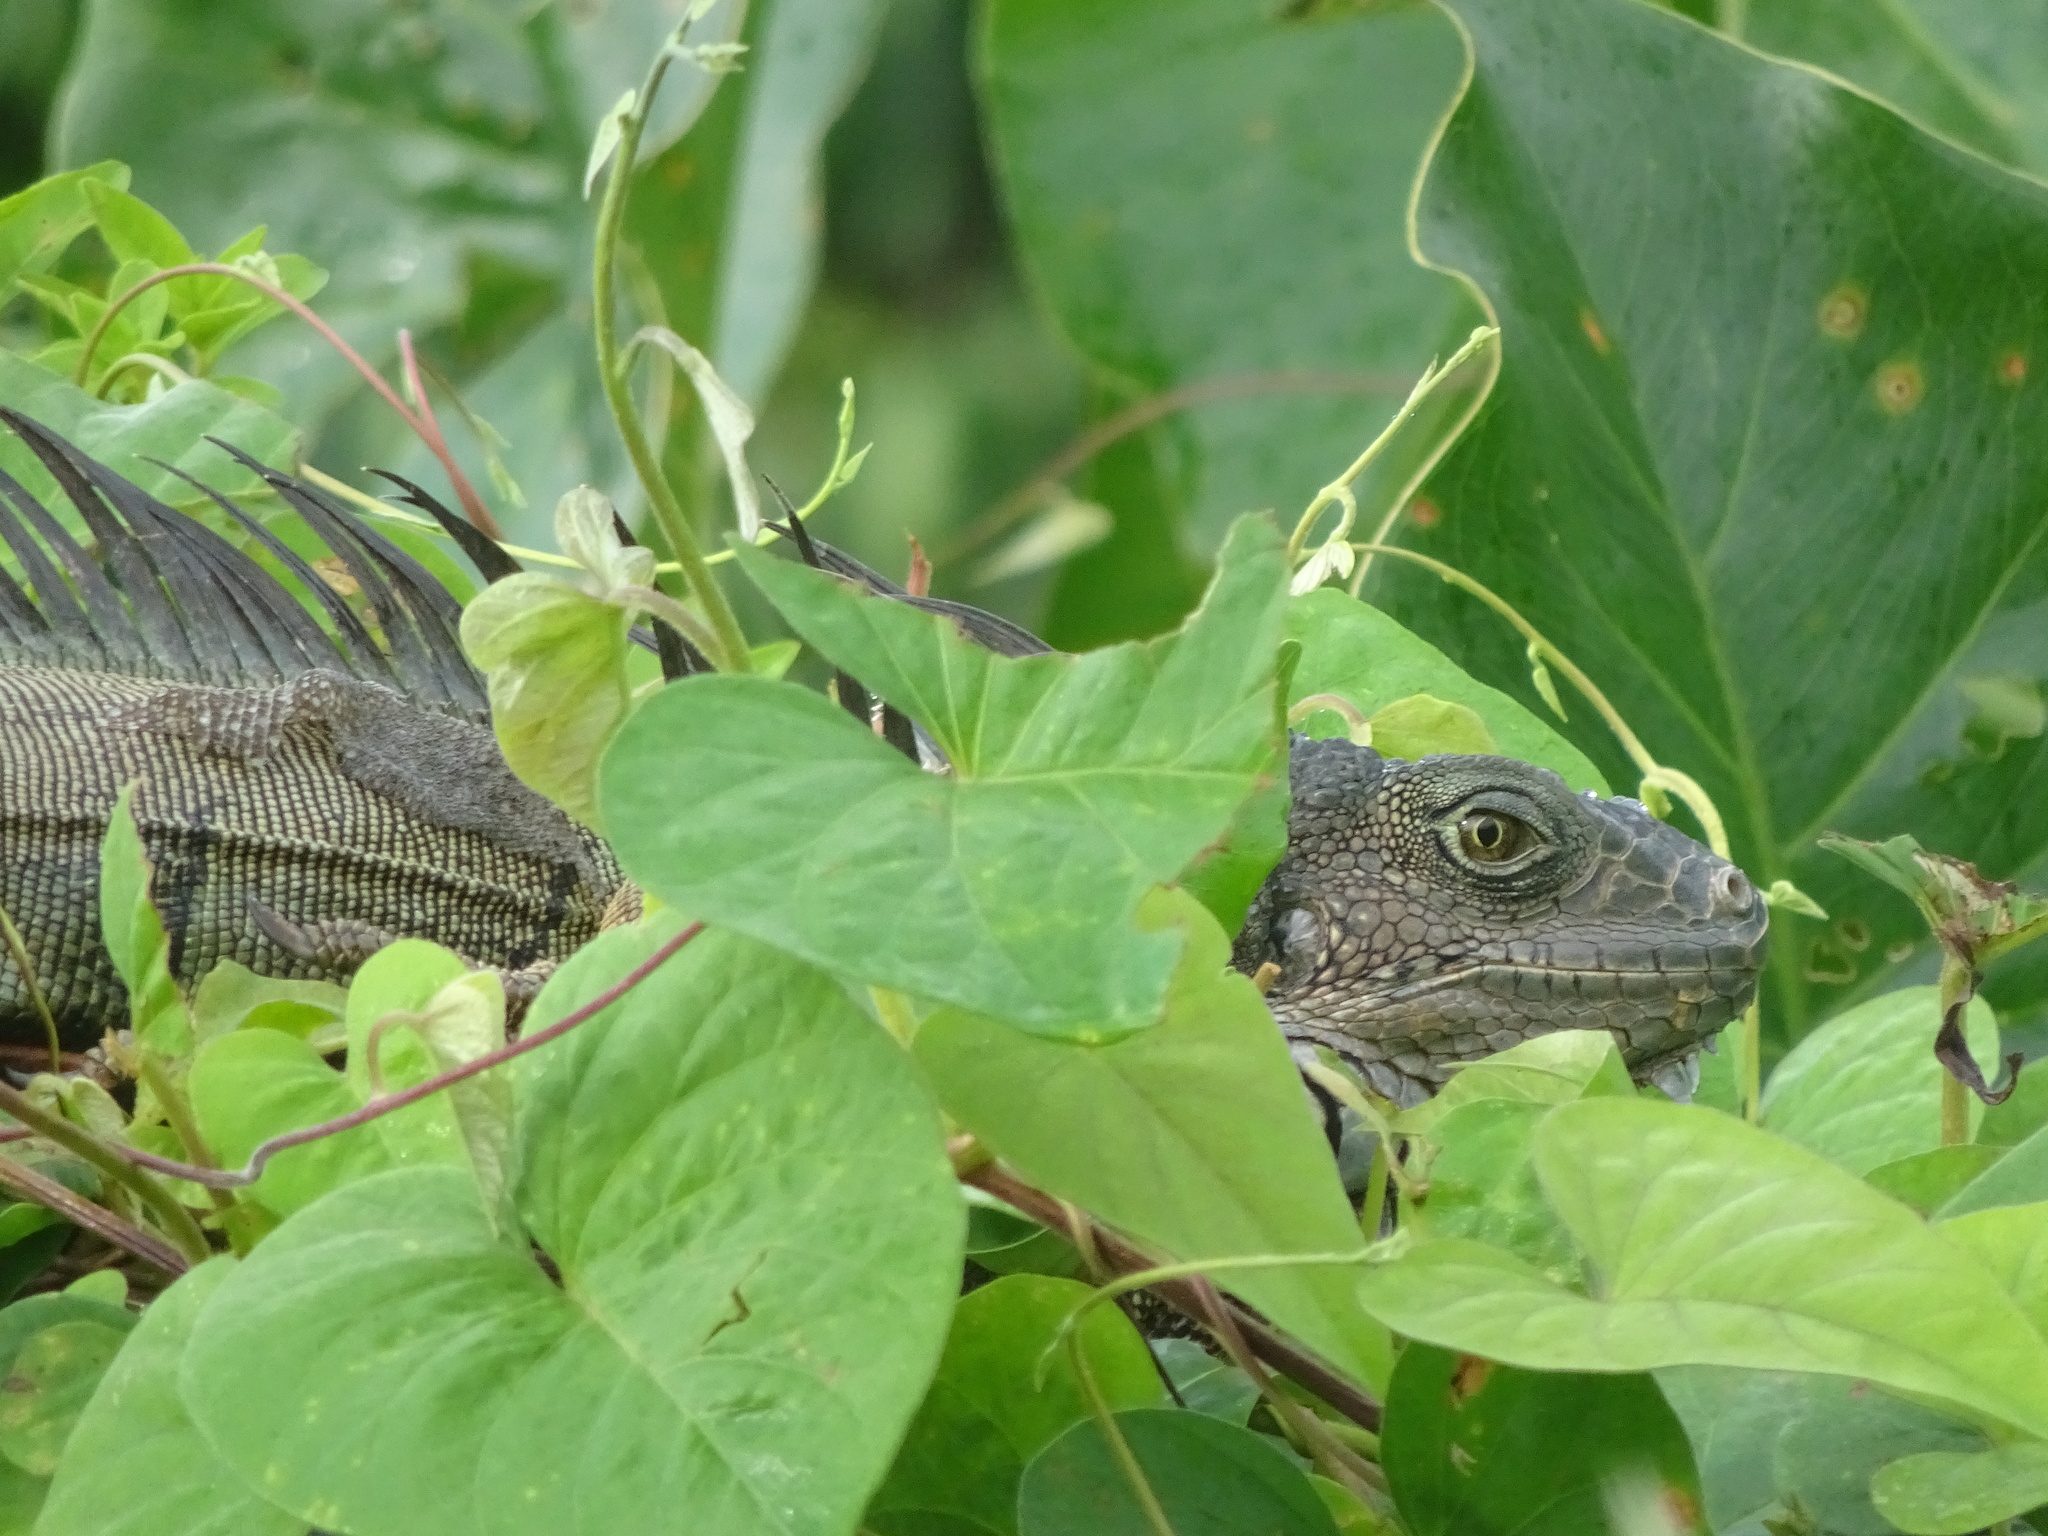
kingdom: Animalia
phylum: Chordata
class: Squamata
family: Iguanidae
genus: Iguana
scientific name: Iguana iguana
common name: Green iguana
